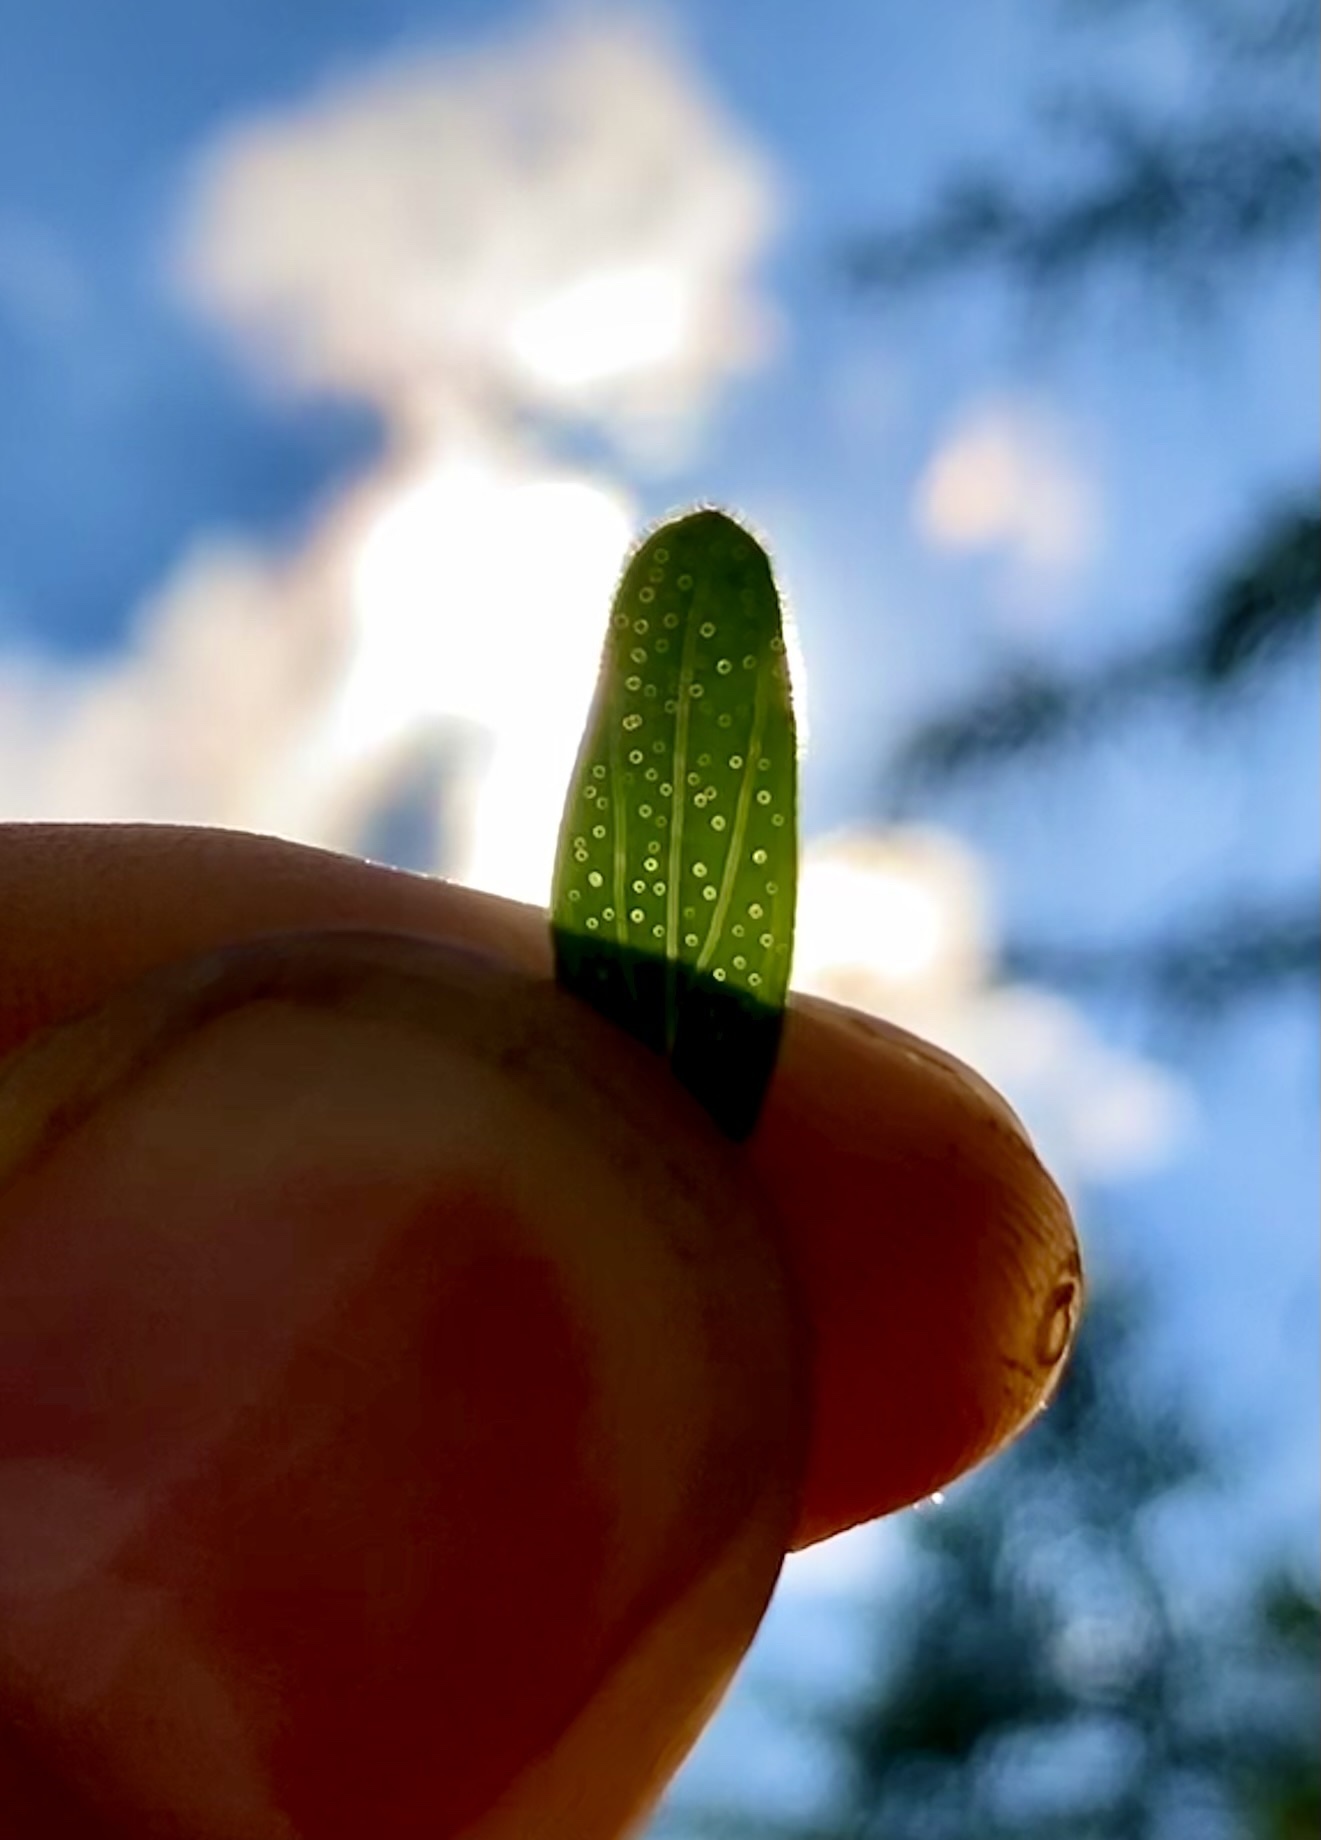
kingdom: Plantae
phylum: Tracheophyta
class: Magnoliopsida
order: Malpighiales
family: Hypericaceae
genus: Hypericum
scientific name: Hypericum perforatum
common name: Common st. johnswort
